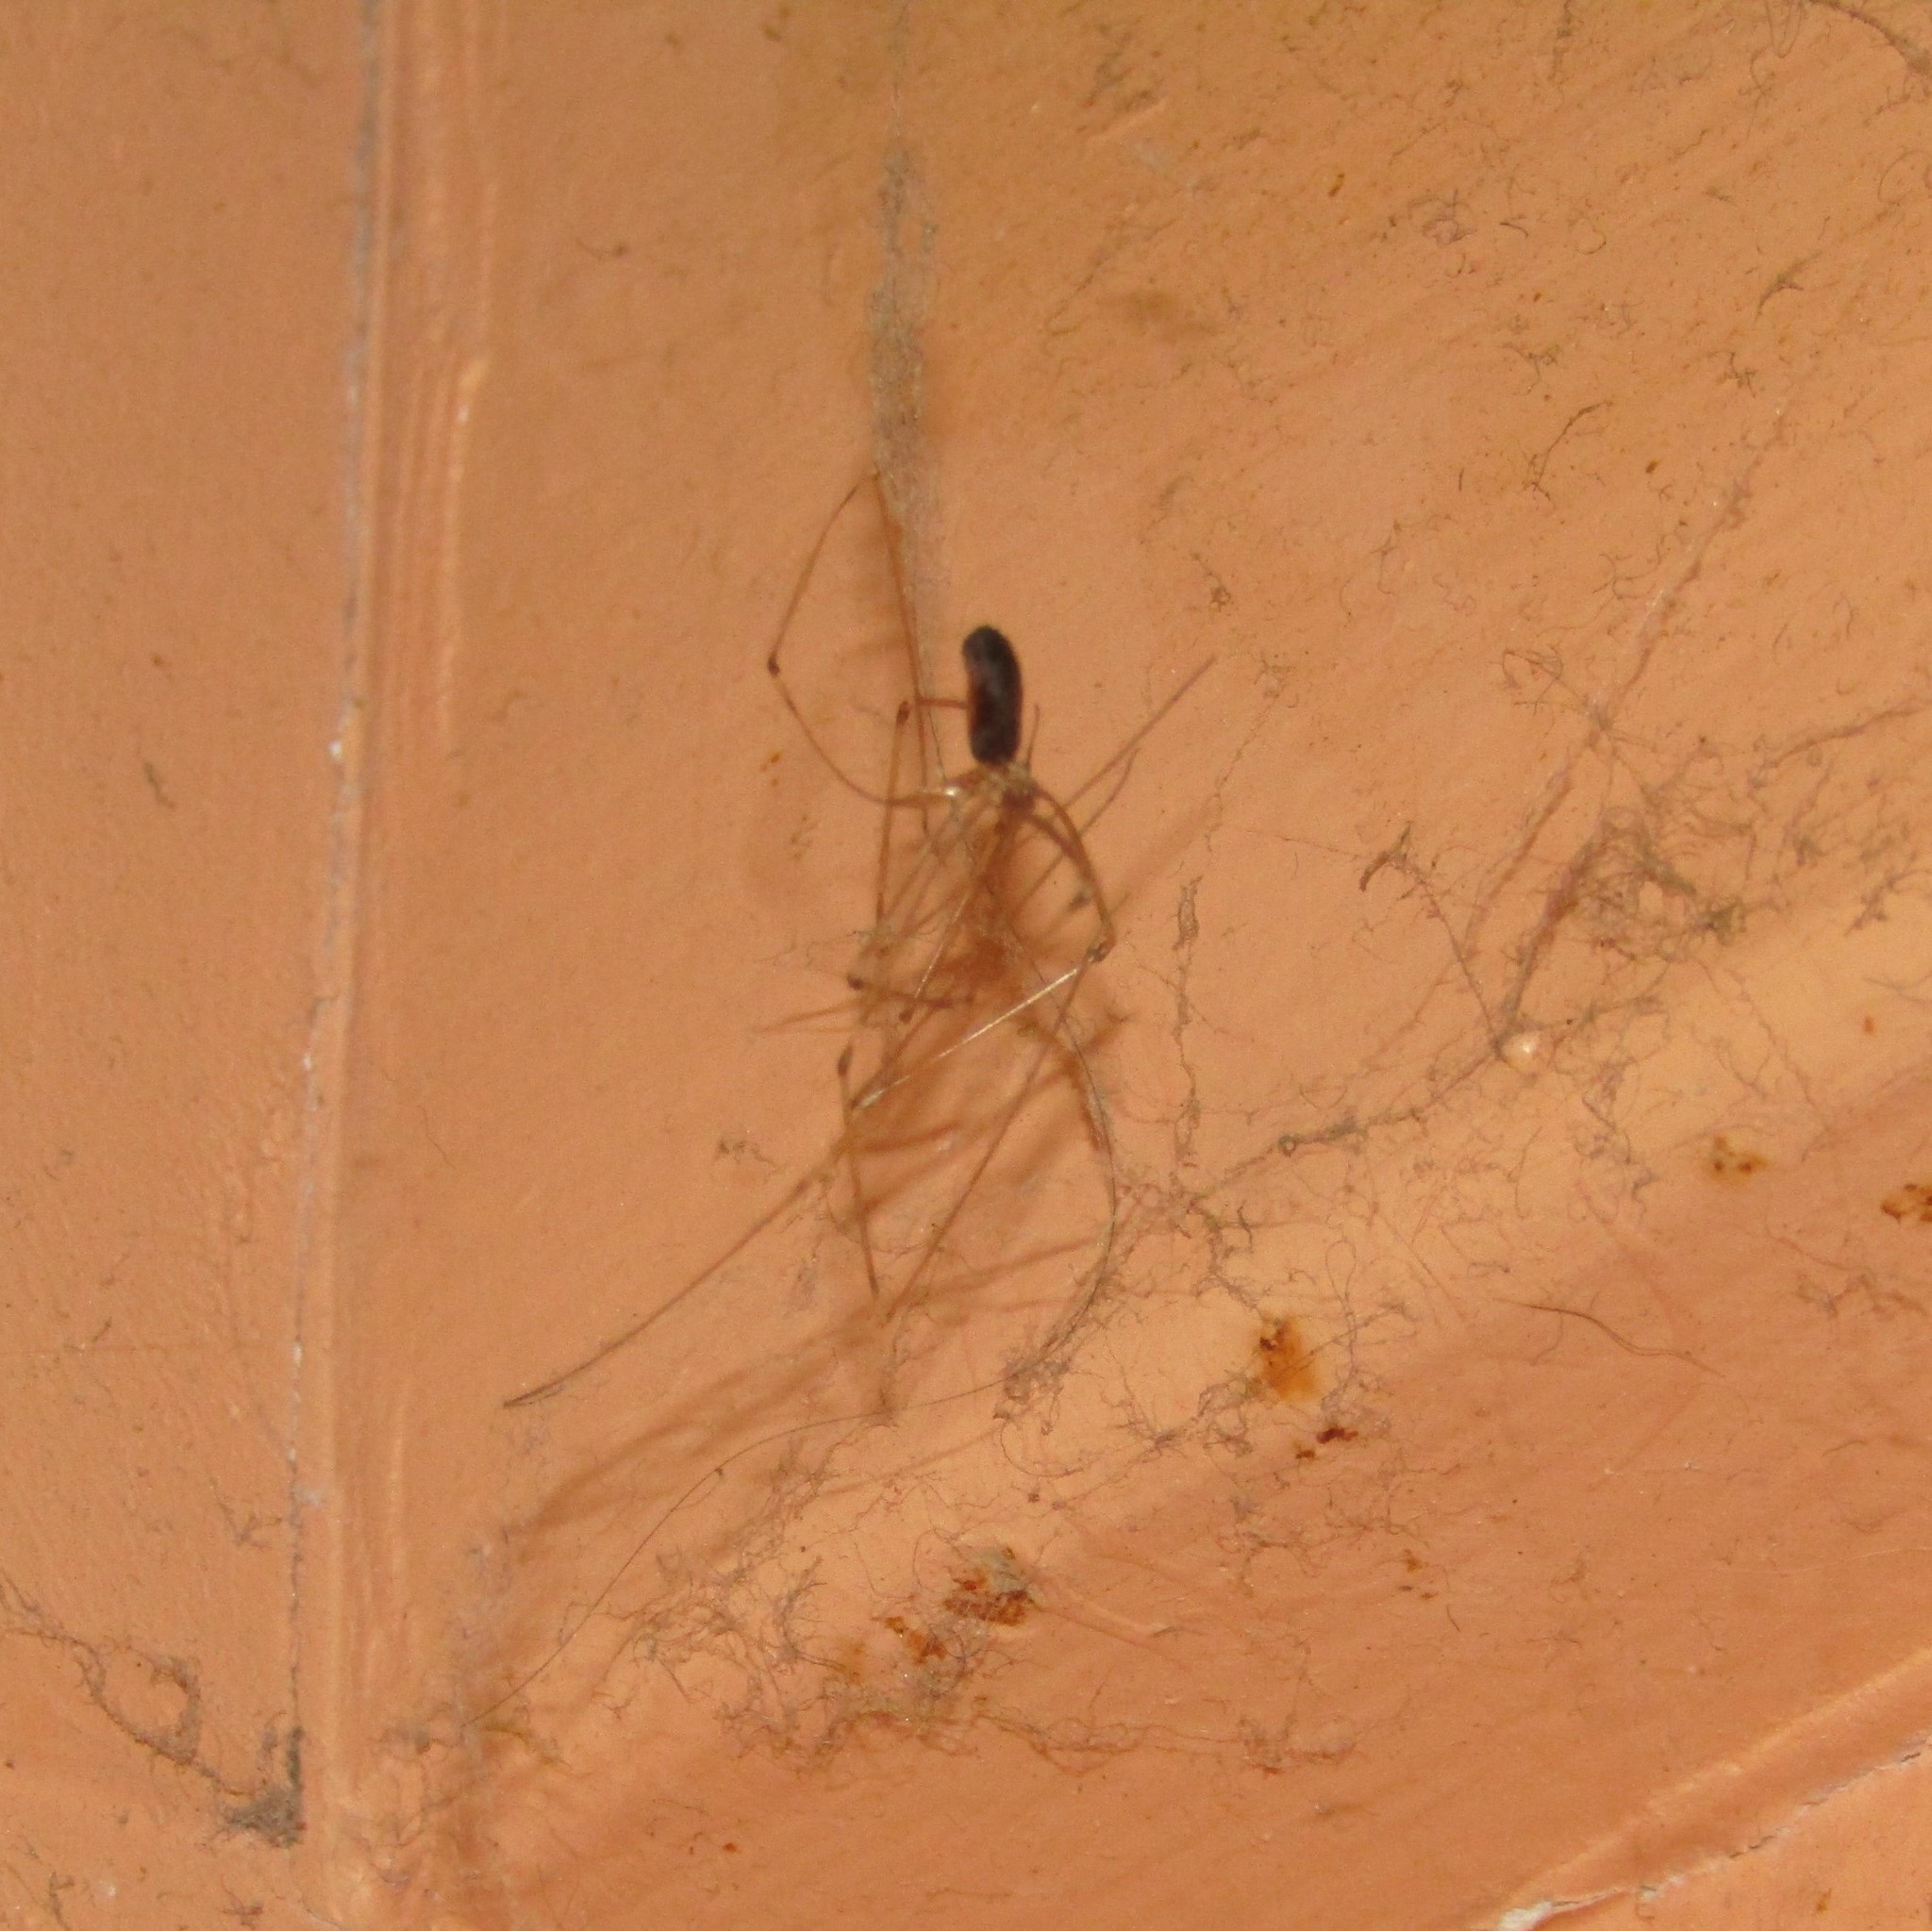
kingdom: Animalia
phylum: Arthropoda
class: Arachnida
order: Araneae
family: Pholcidae
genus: Pholcus
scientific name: Pholcus phalangioides
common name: Longbodied cellar spider
